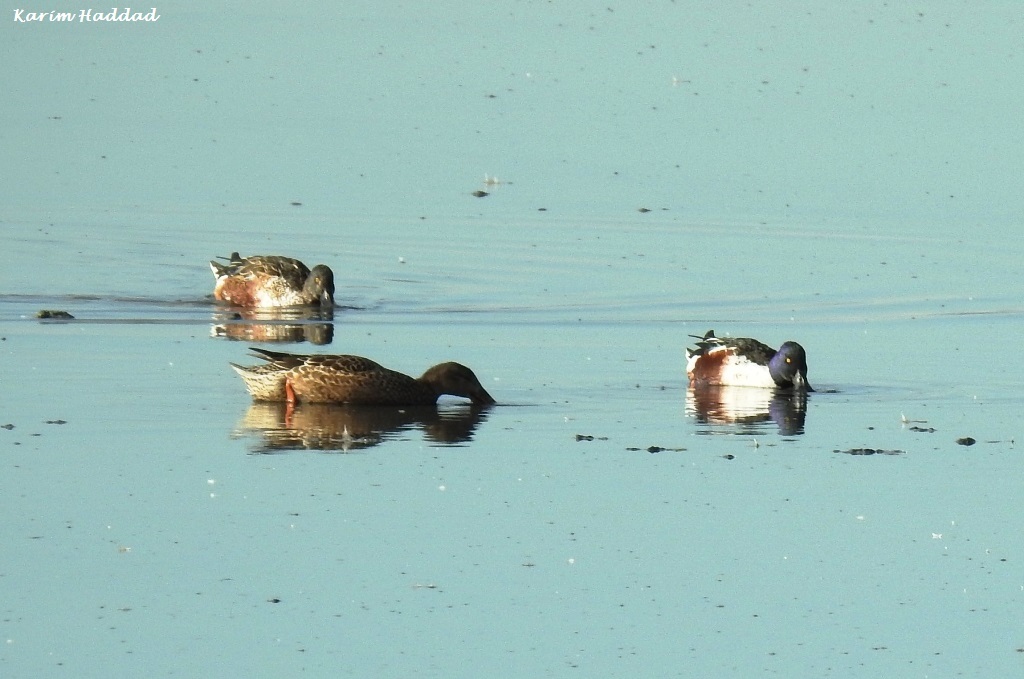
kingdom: Animalia
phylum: Chordata
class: Aves
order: Anseriformes
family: Anatidae
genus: Spatula
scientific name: Spatula clypeata
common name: Northern shoveler
